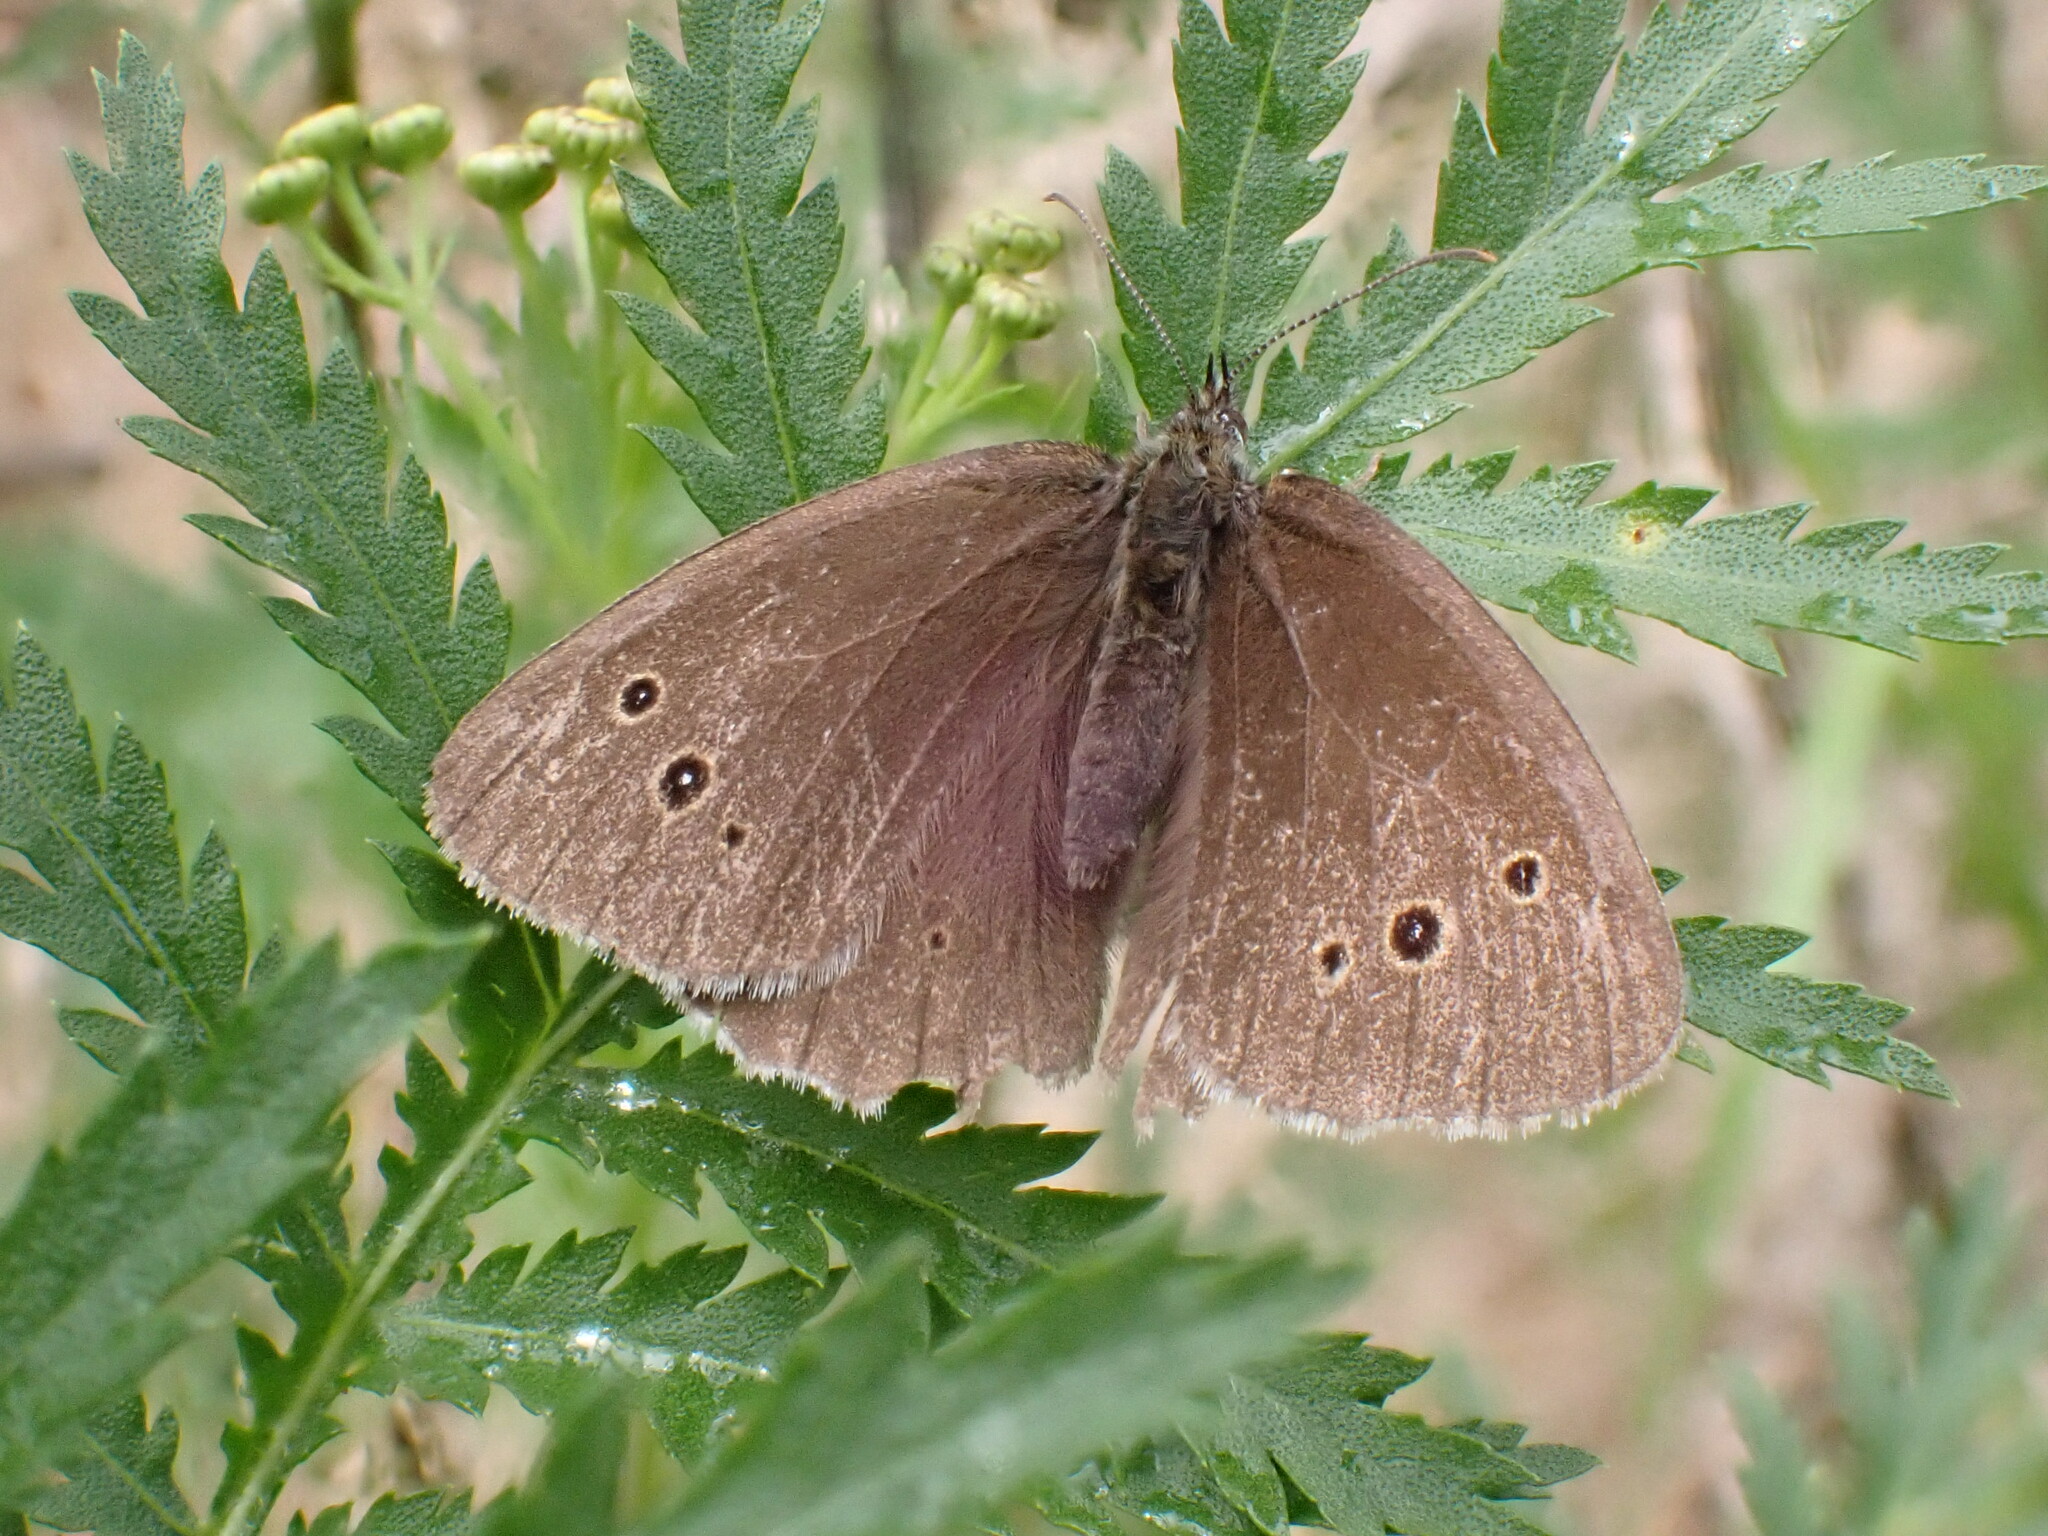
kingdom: Animalia
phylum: Arthropoda
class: Insecta
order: Lepidoptera
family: Nymphalidae
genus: Aphantopus
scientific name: Aphantopus hyperantus
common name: Ringlet
